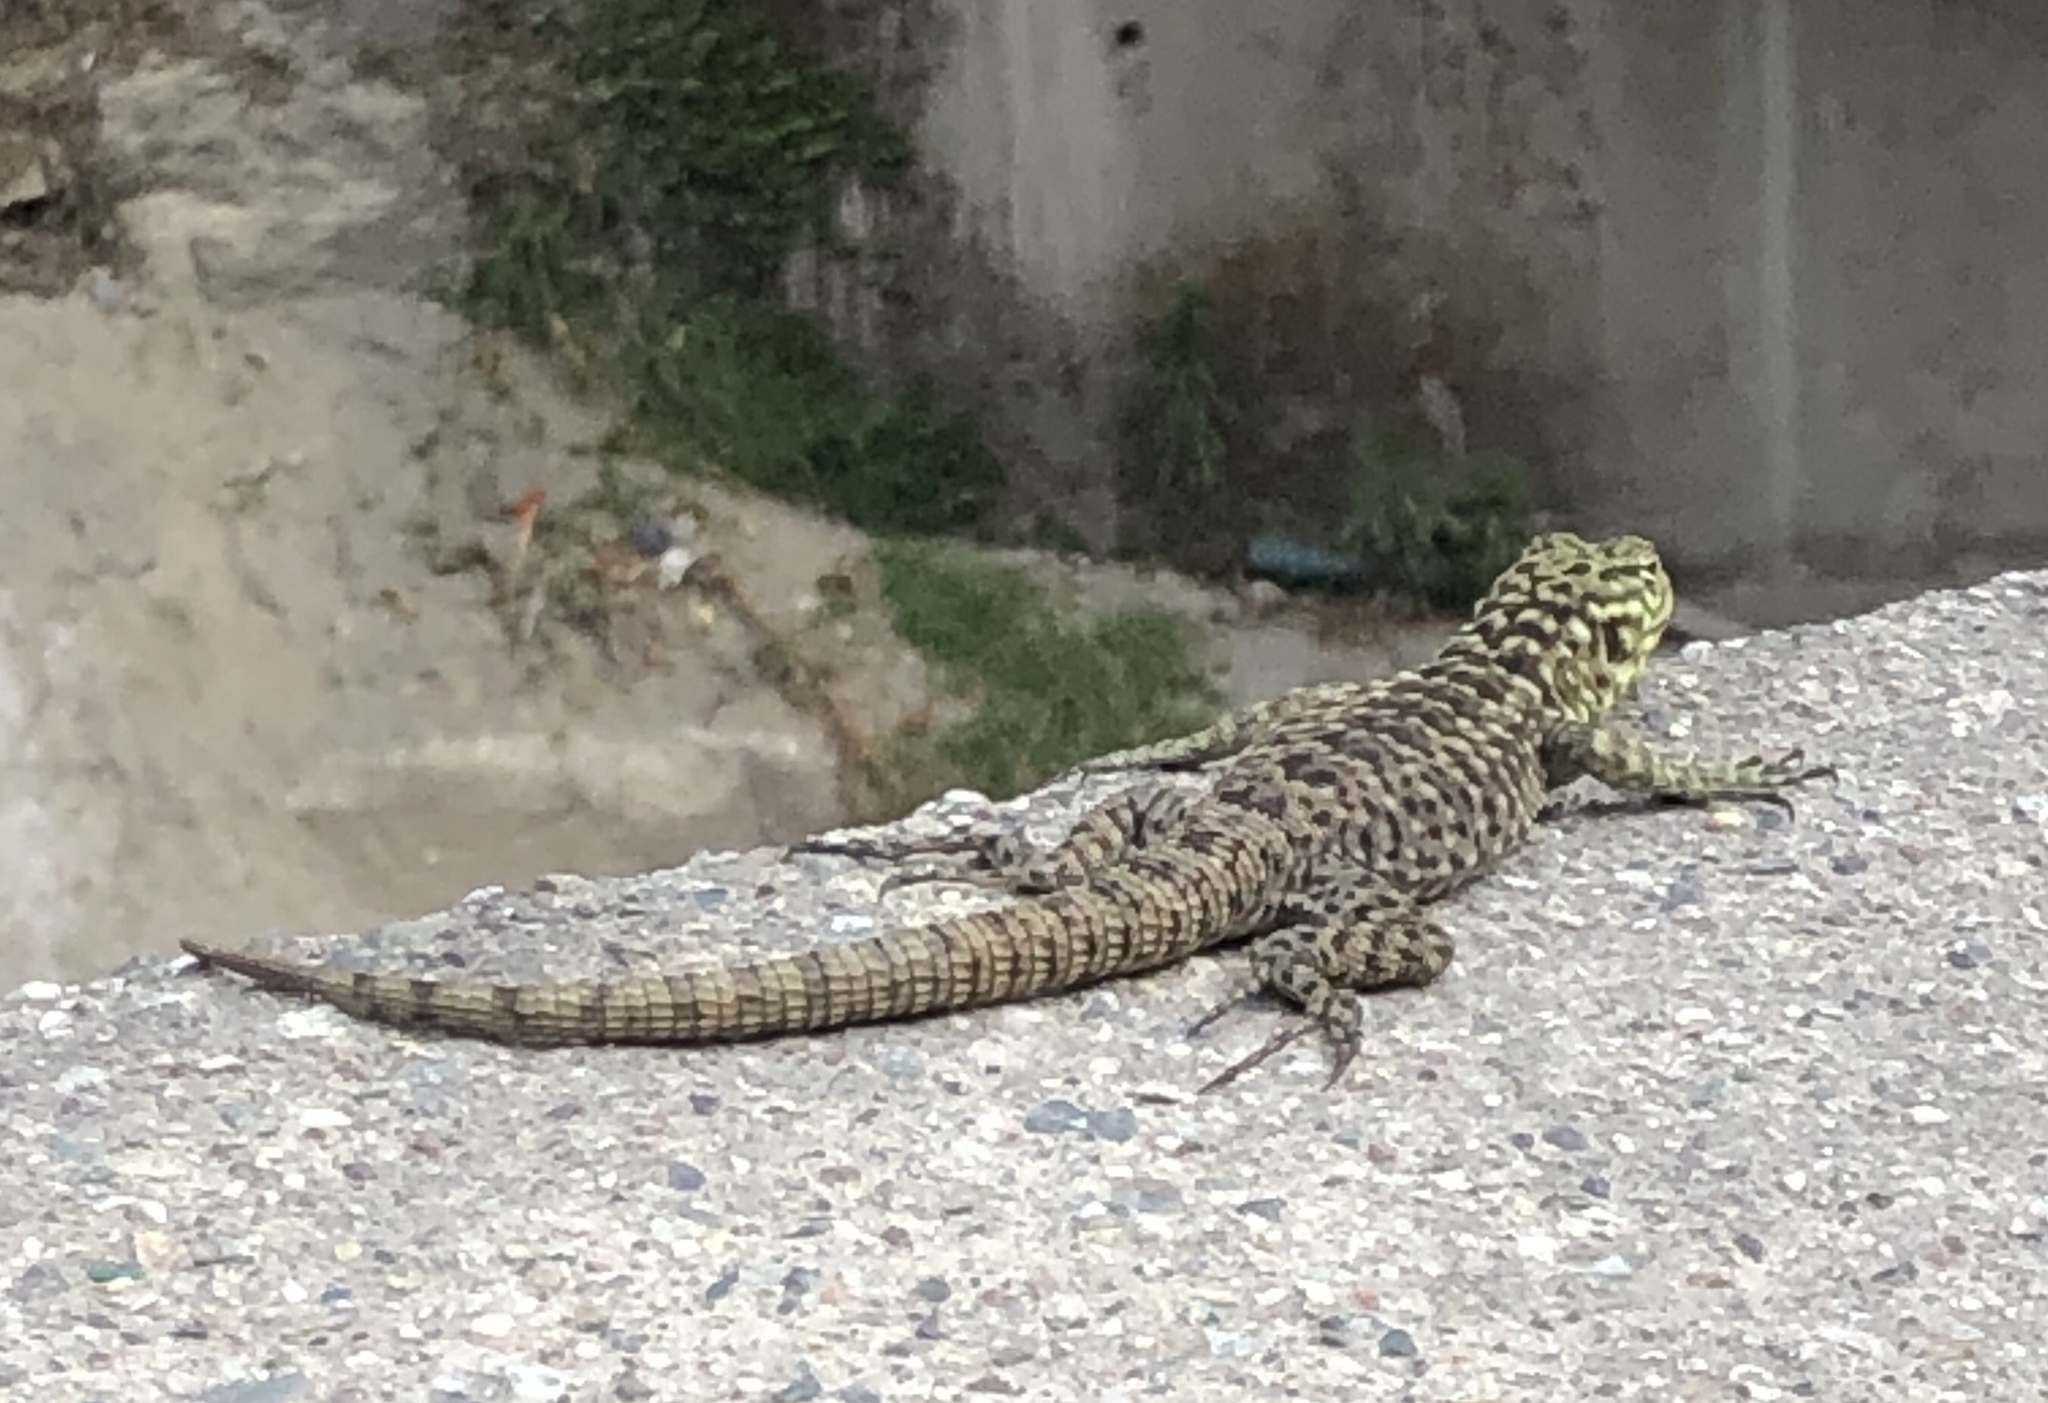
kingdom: Animalia
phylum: Chordata
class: Squamata
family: Tropiduridae
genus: Stenocercus
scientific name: Stenocercus crassicaudatus
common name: Spiny whorltail iguana
